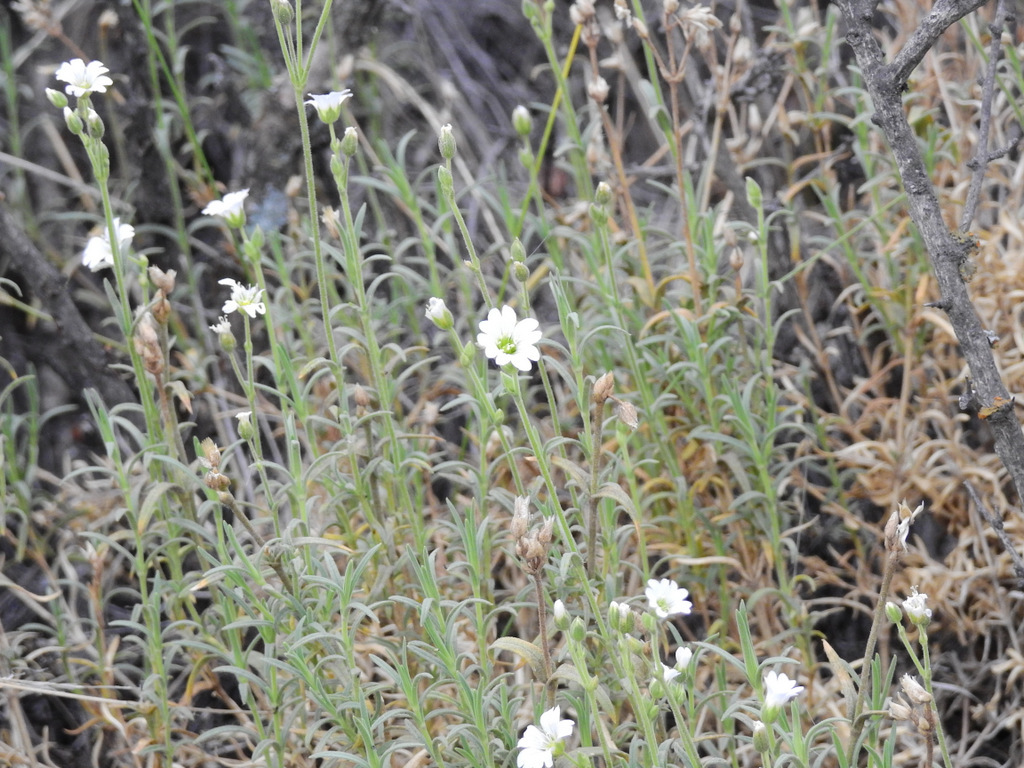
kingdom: Plantae
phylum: Tracheophyta
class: Magnoliopsida
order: Caryophyllales
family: Caryophyllaceae
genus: Cerastium
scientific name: Cerastium arvense
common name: Field mouse-ear
